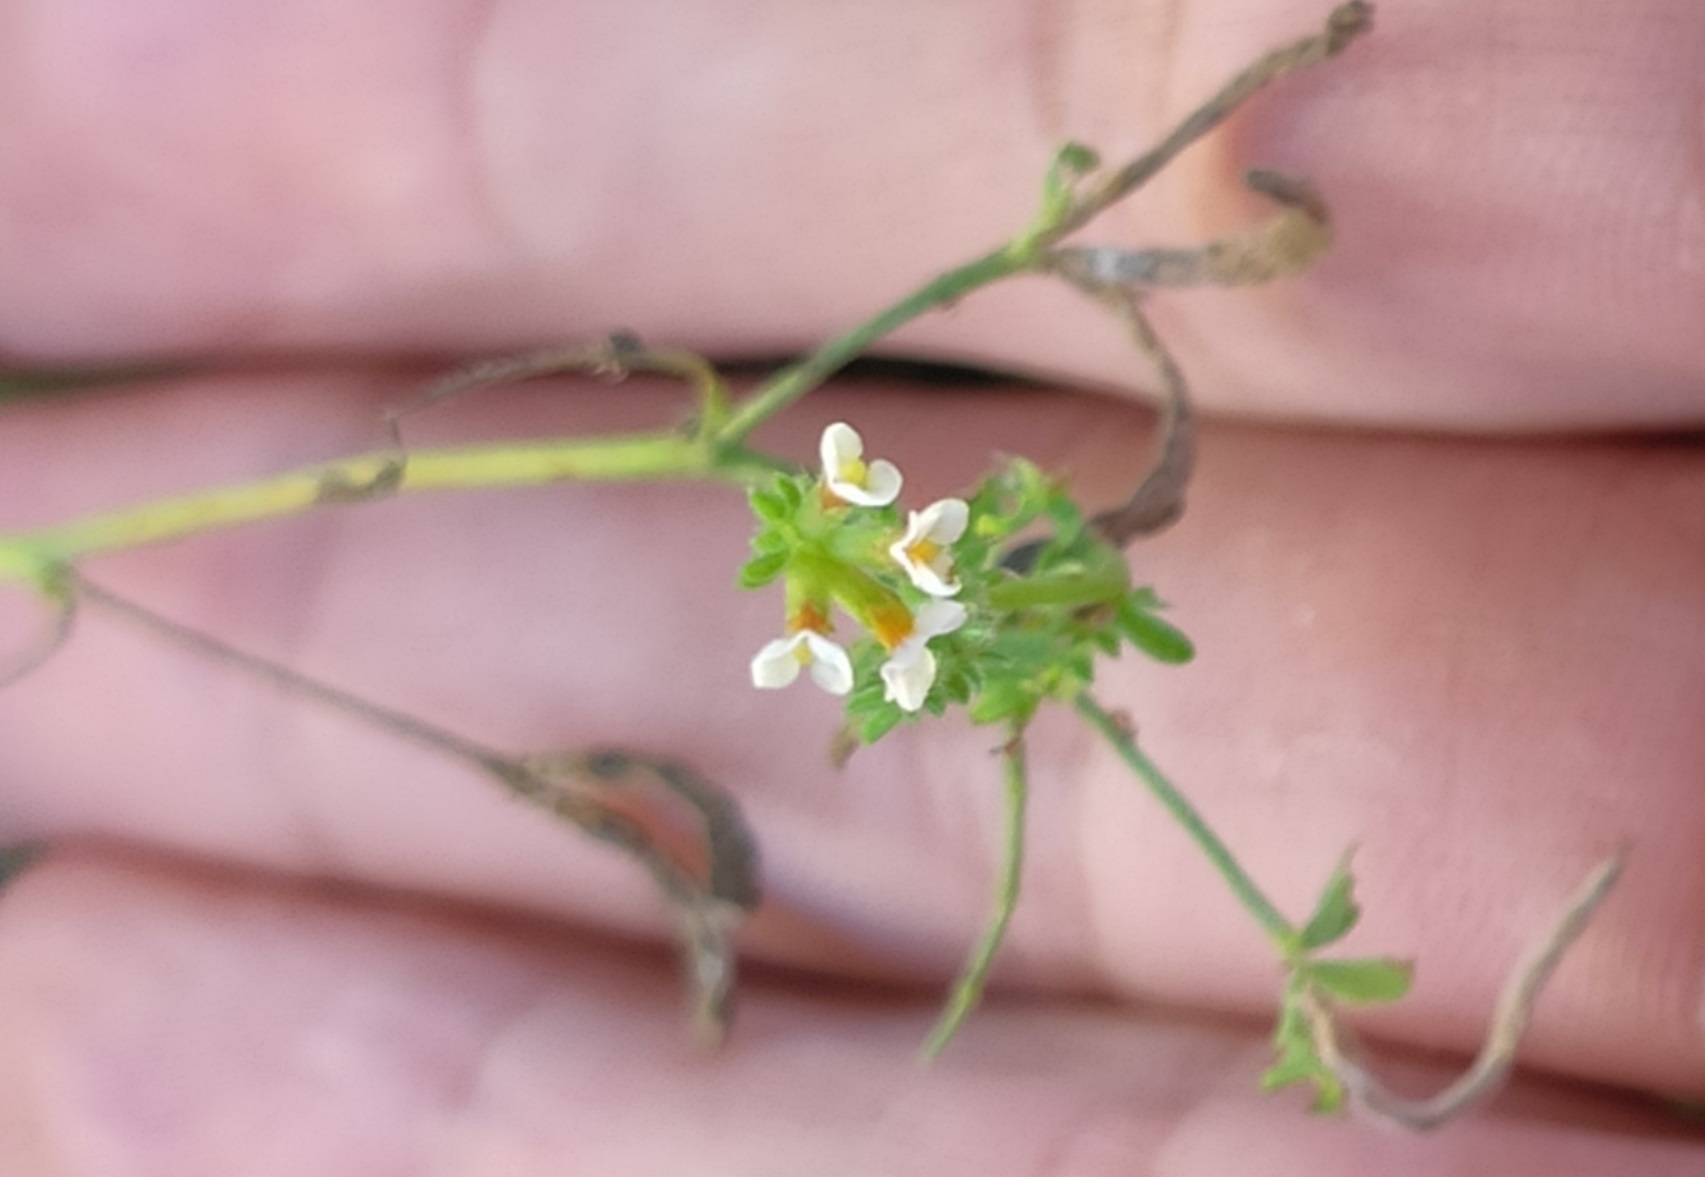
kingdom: Plantae
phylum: Tracheophyta
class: Magnoliopsida
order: Fabales
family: Fabaceae
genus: Ornithopus
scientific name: Ornithopus perpusillus
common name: Bird's-foot
